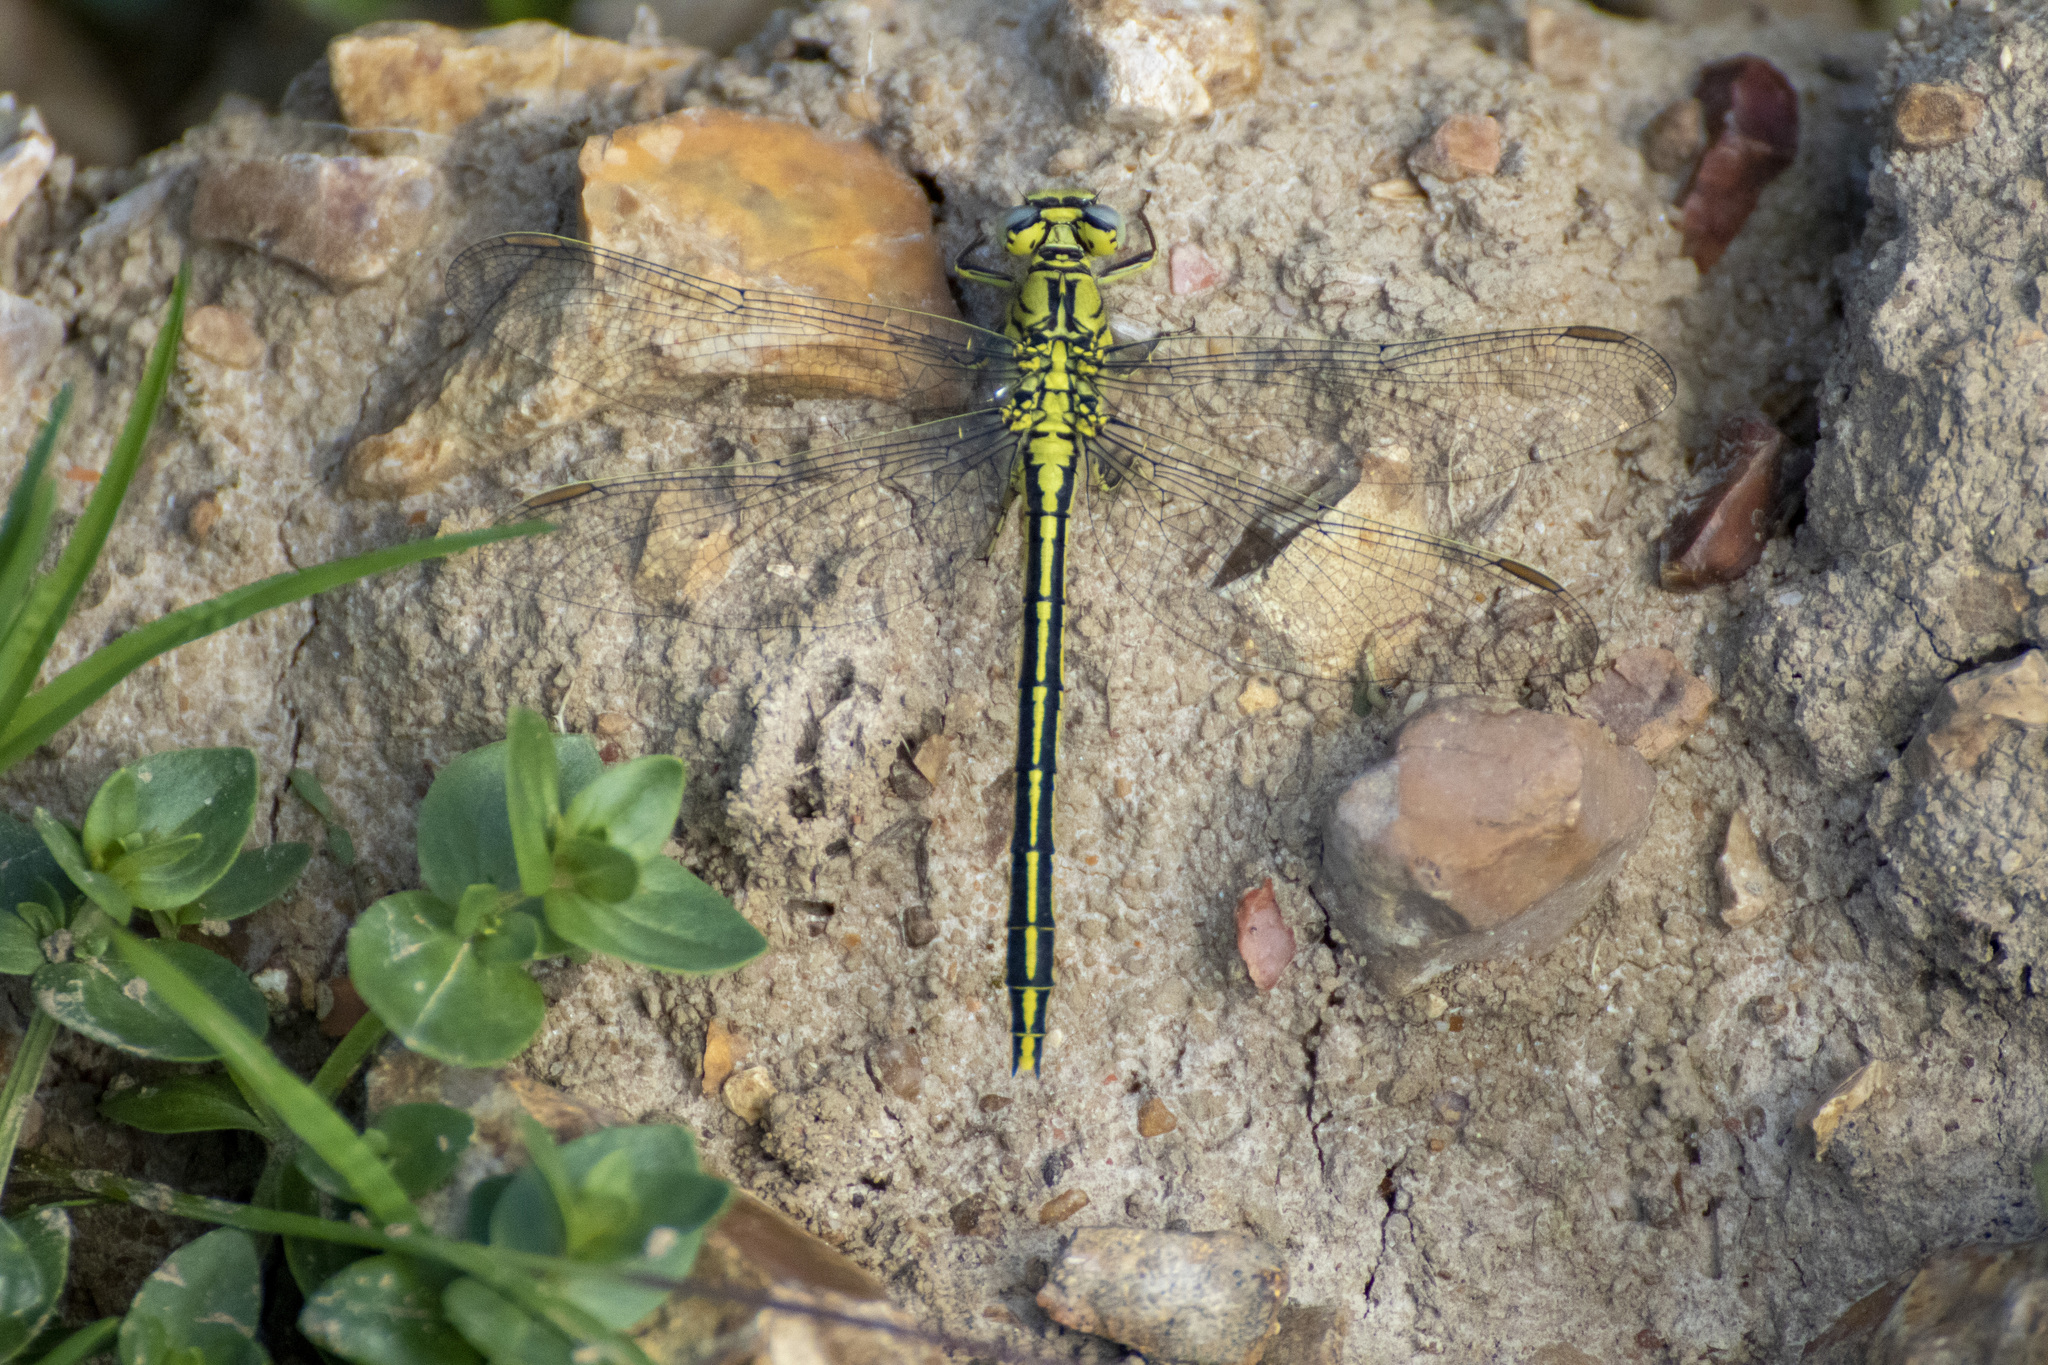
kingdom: Animalia
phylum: Arthropoda
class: Insecta
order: Odonata
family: Gomphidae
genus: Gomphus
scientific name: Gomphus pulchellus
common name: Western clubtail
